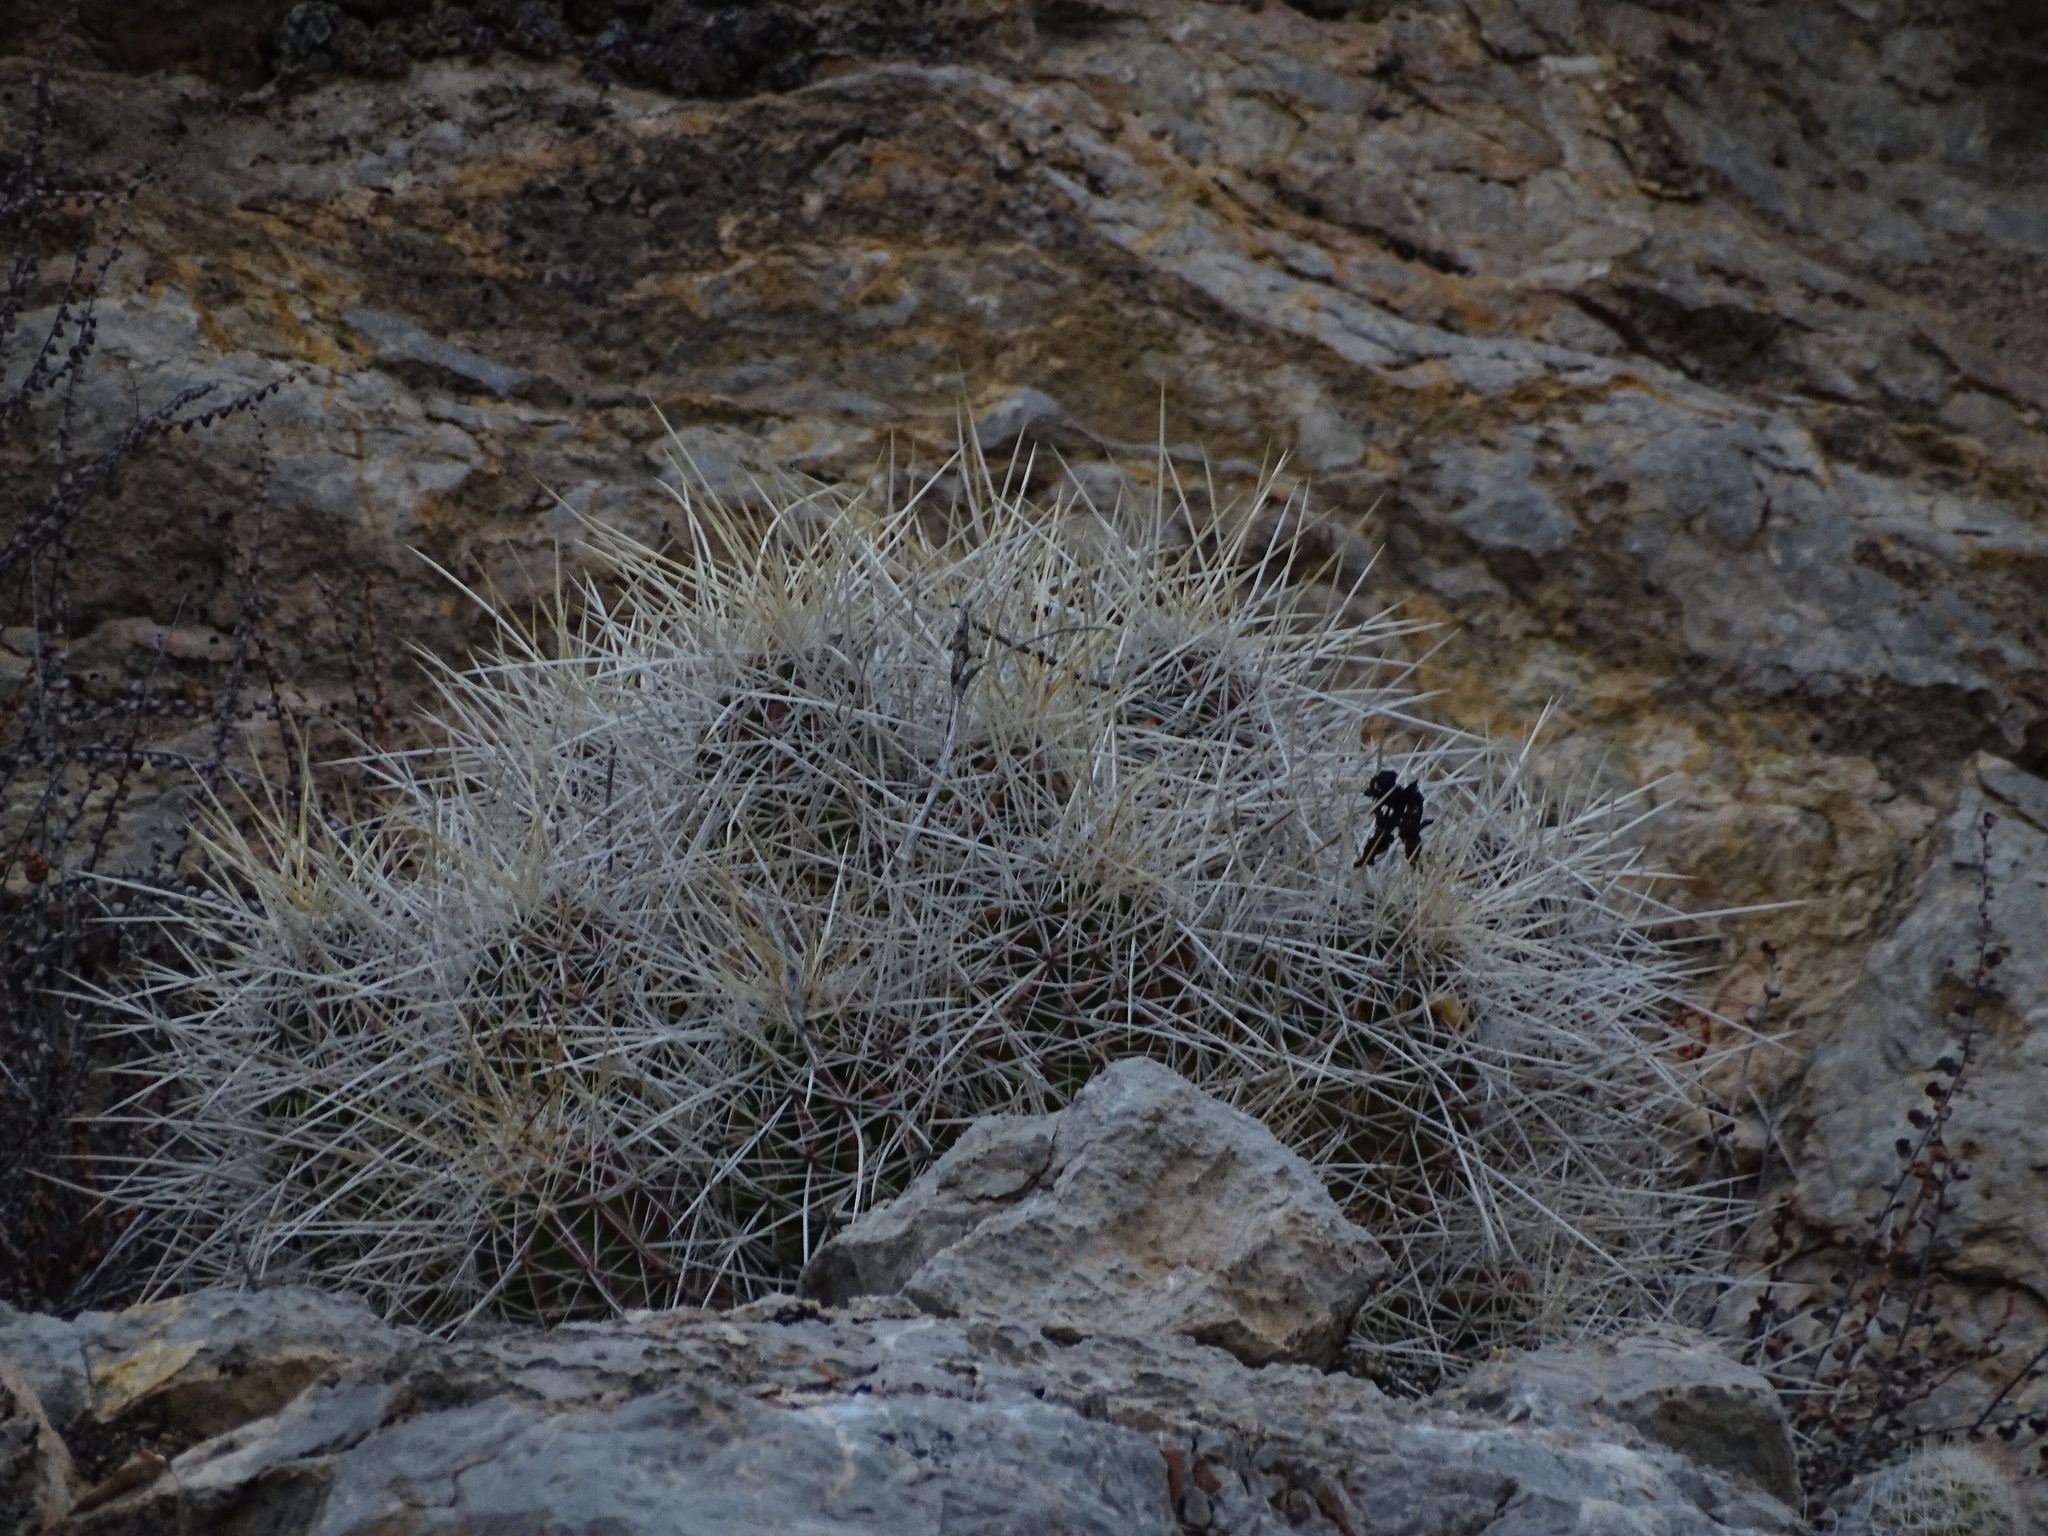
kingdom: Plantae
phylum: Tracheophyta
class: Magnoliopsida
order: Caryophyllales
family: Cactaceae
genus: Echinocereus
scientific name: Echinocereus stramineus
